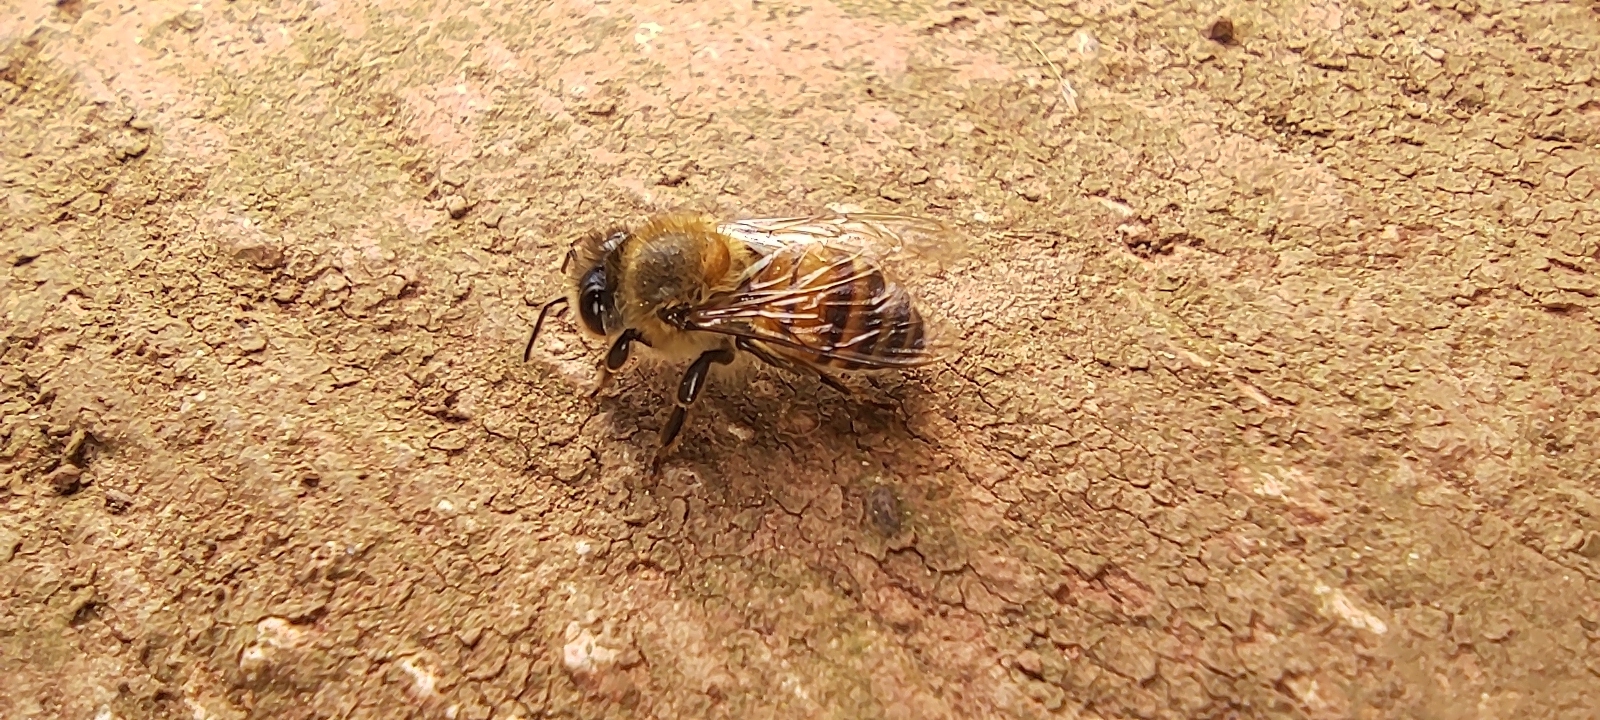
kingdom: Animalia
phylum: Arthropoda
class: Insecta
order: Hymenoptera
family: Apidae
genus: Apis
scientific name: Apis mellifera
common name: Honey bee
